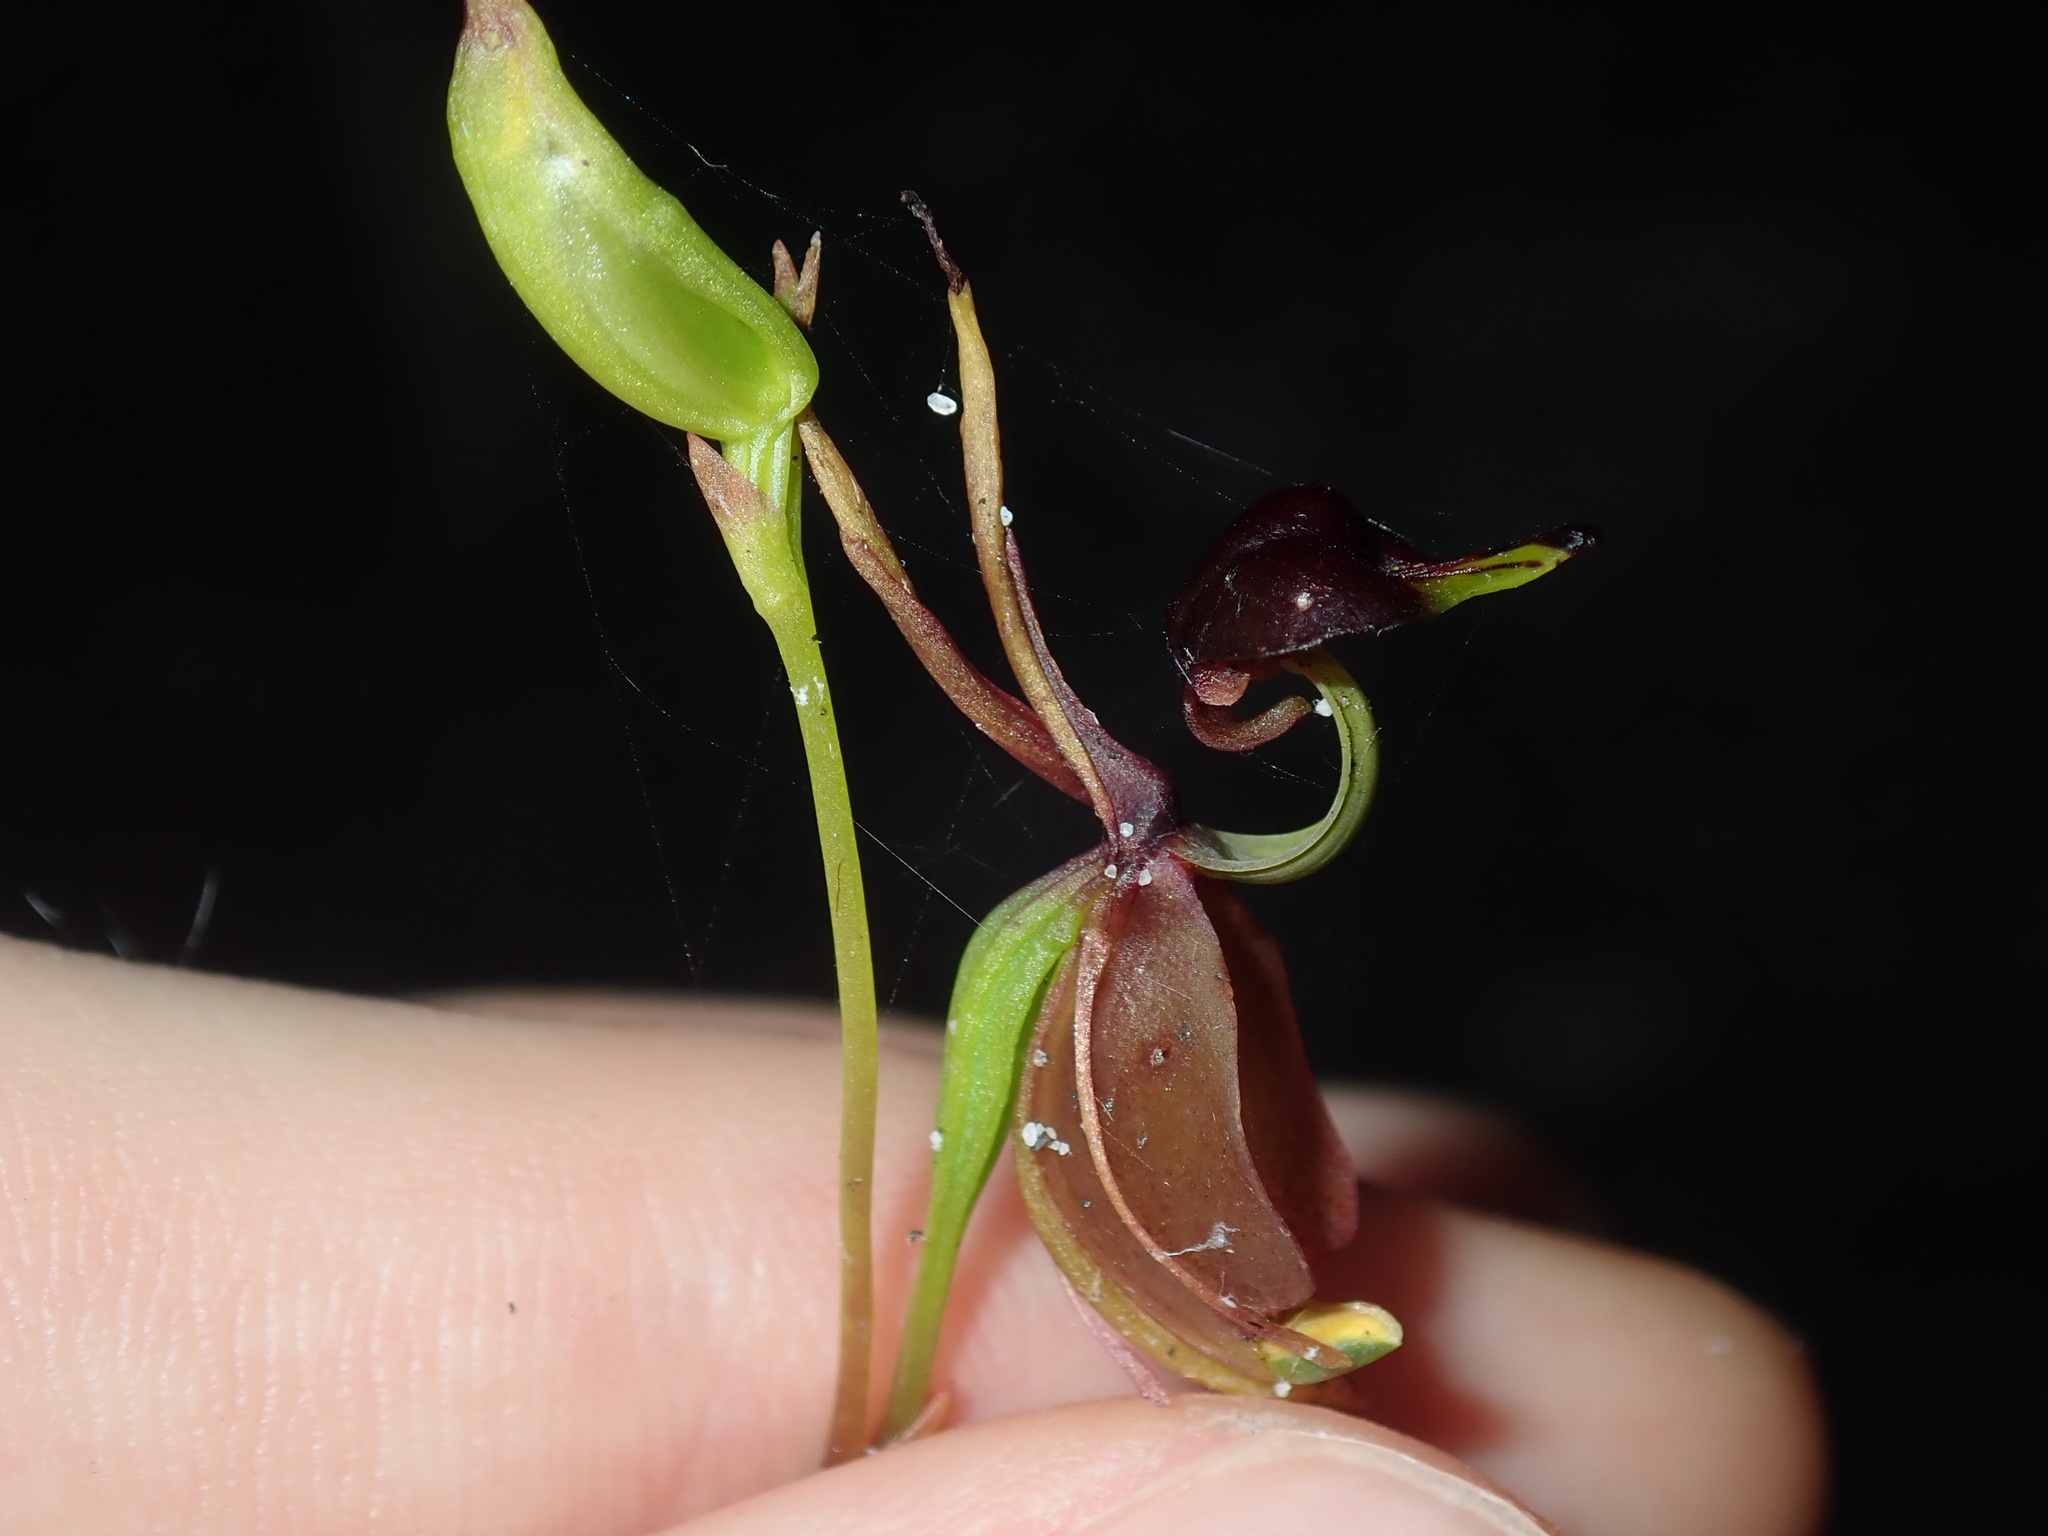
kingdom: Plantae
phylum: Tracheophyta
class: Liliopsida
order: Asparagales
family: Orchidaceae
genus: Caleana
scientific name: Caleana major
